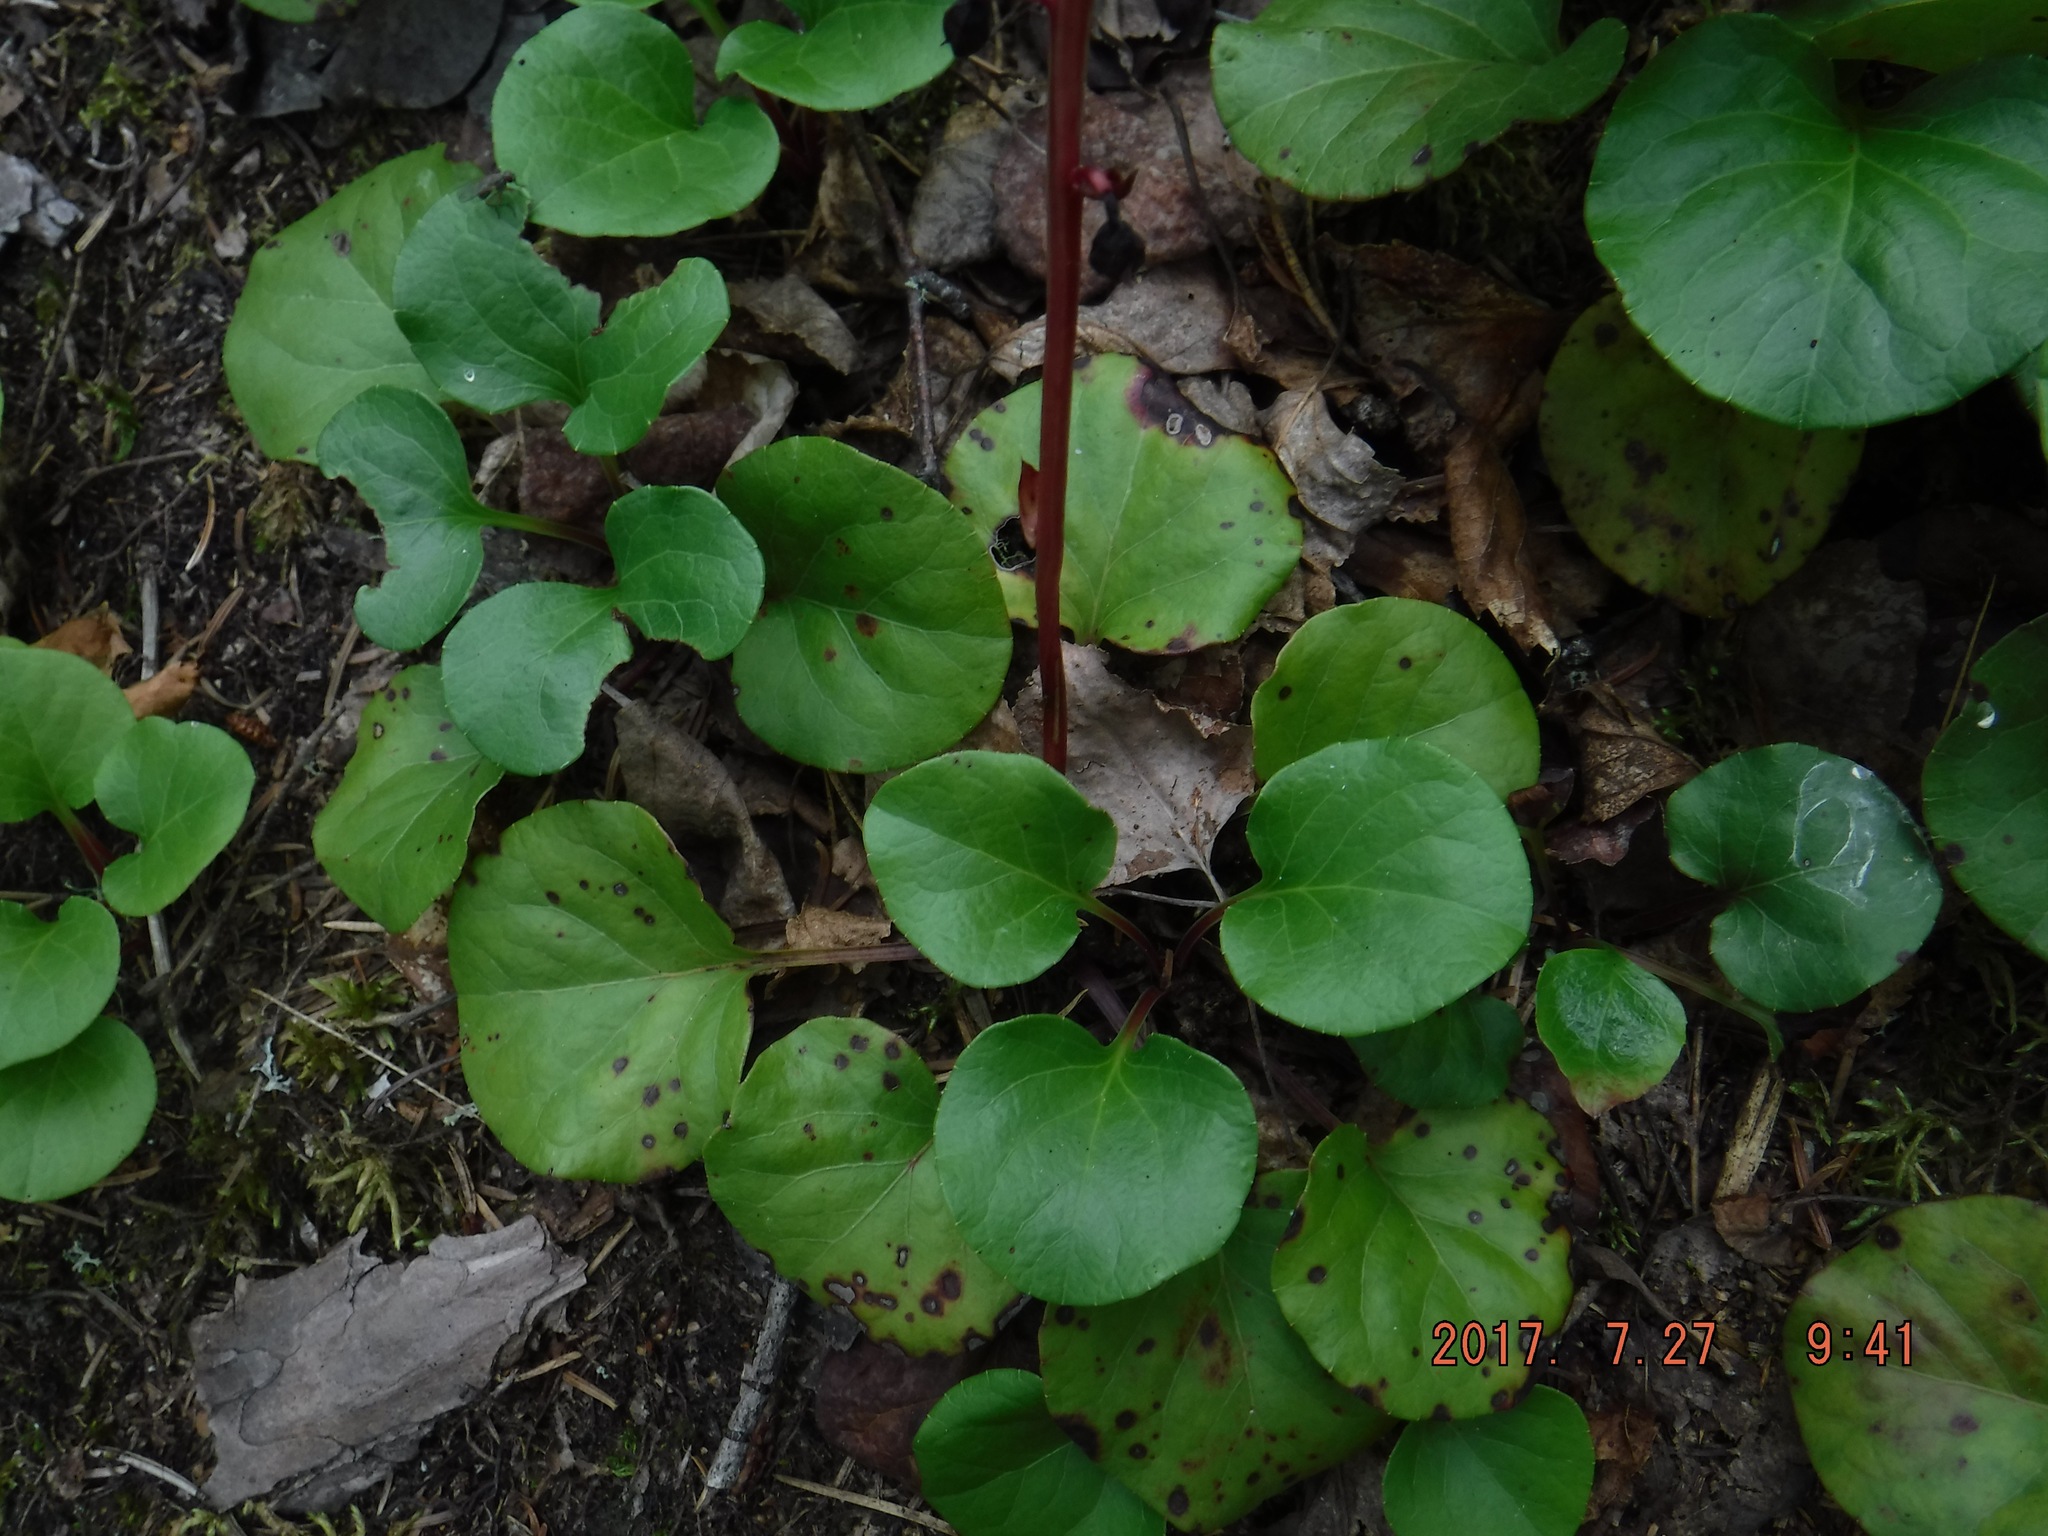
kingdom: Plantae
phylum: Tracheophyta
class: Magnoliopsida
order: Ericales
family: Ericaceae
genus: Pyrola
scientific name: Pyrola asarifolia
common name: Bog wintergreen
